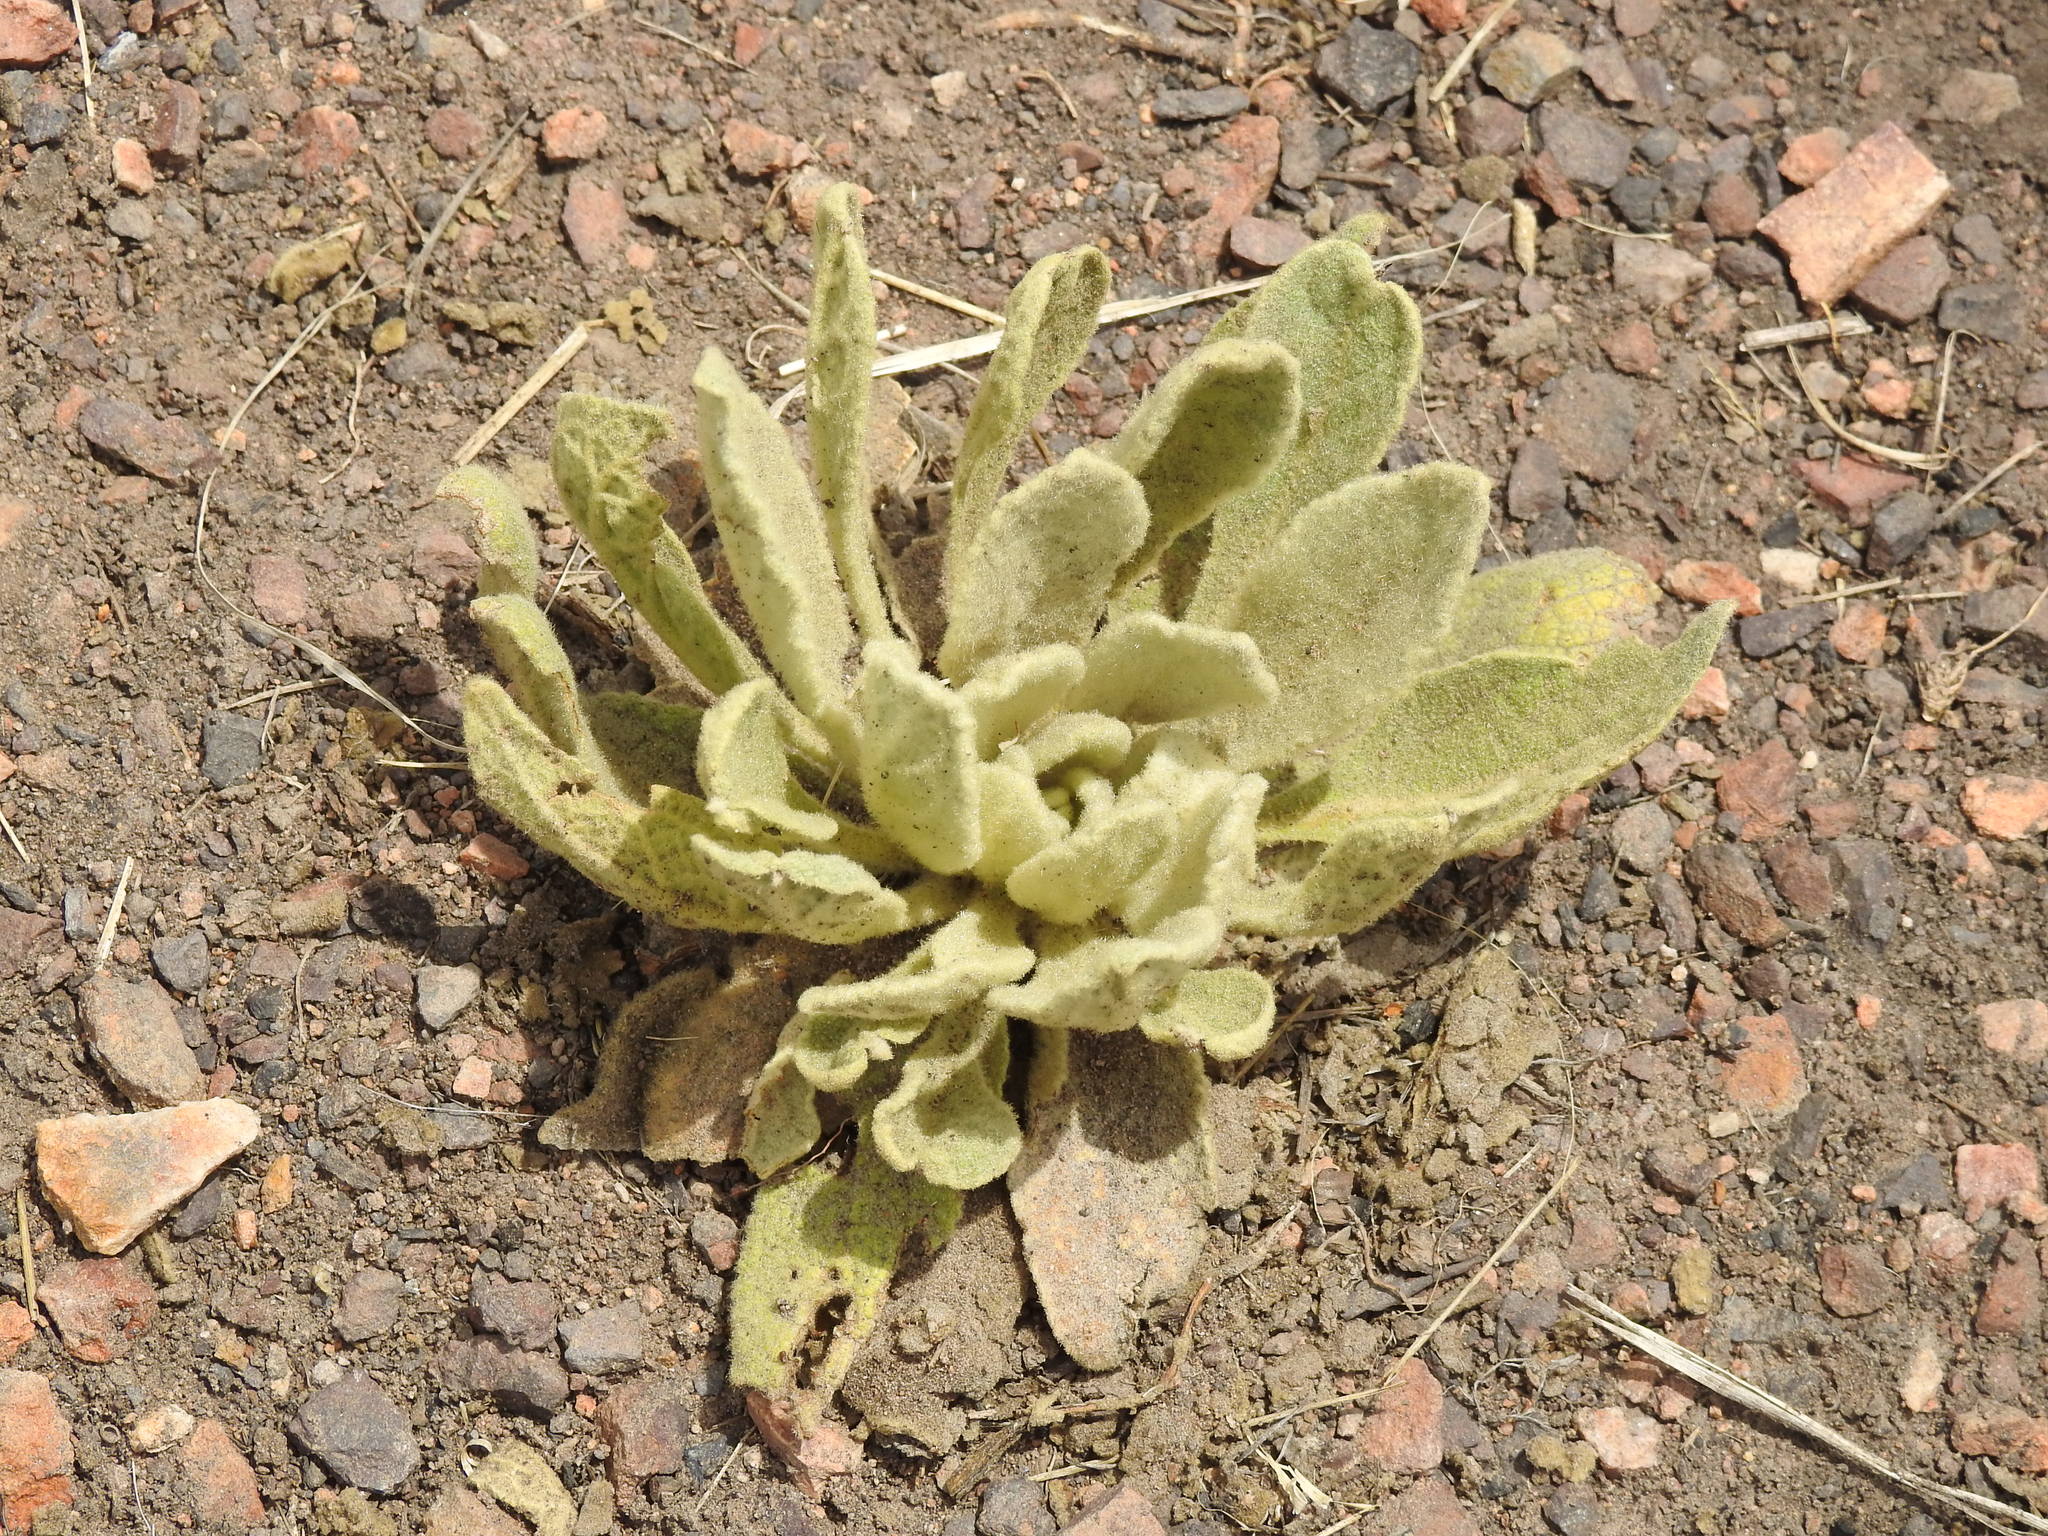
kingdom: Plantae
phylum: Tracheophyta
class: Magnoliopsida
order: Lamiales
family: Scrophulariaceae
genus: Verbascum
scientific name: Verbascum thapsus
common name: Common mullein
